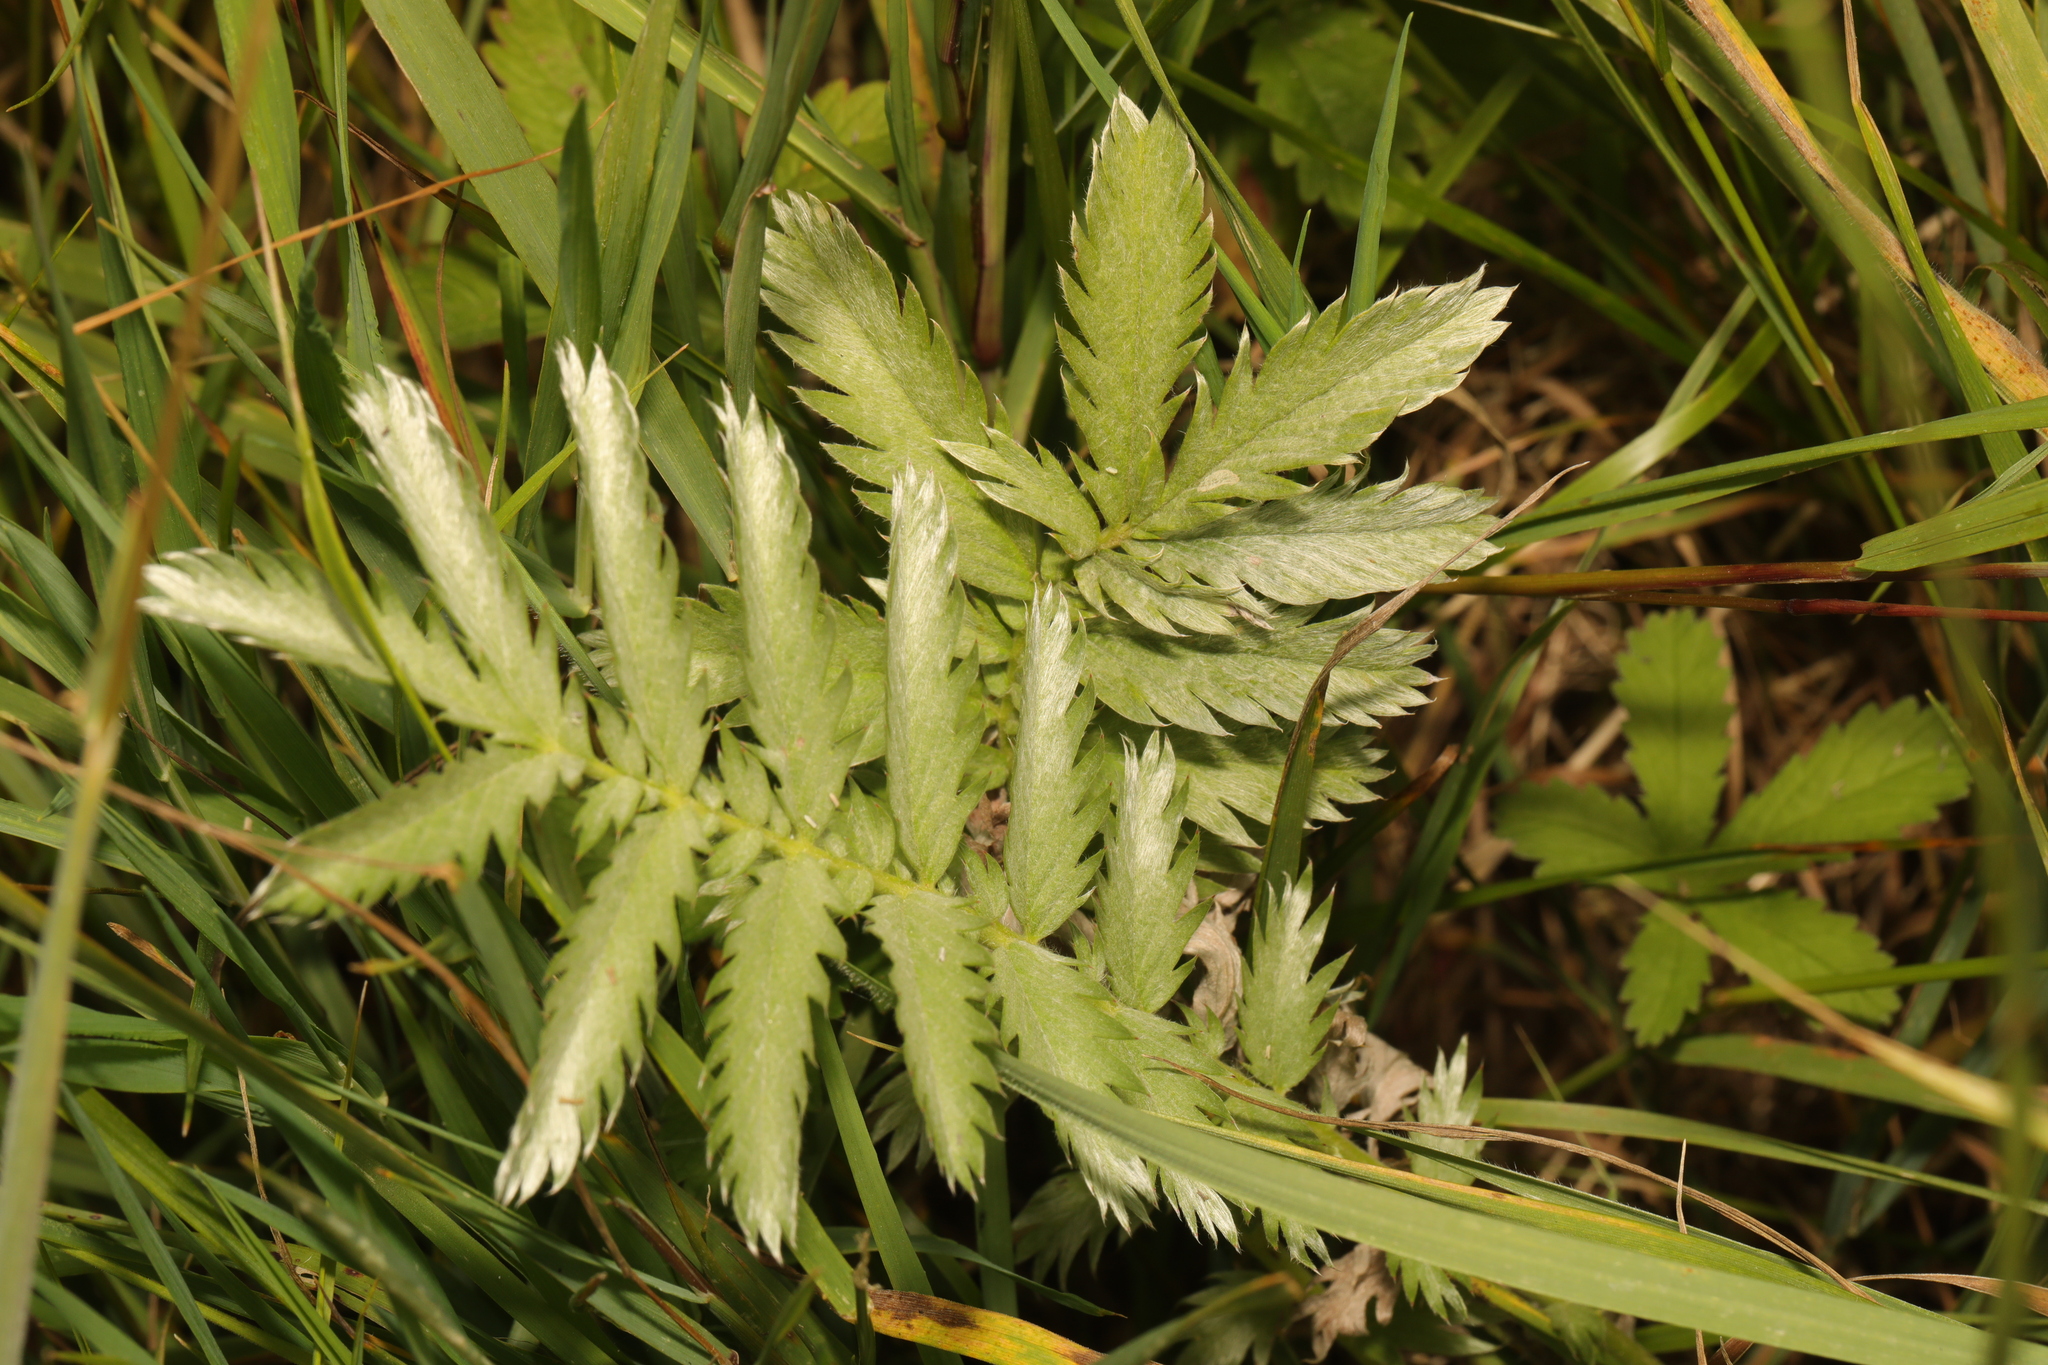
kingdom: Plantae
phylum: Tracheophyta
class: Magnoliopsida
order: Rosales
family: Rosaceae
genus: Argentina
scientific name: Argentina anserina
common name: Common silverweed
